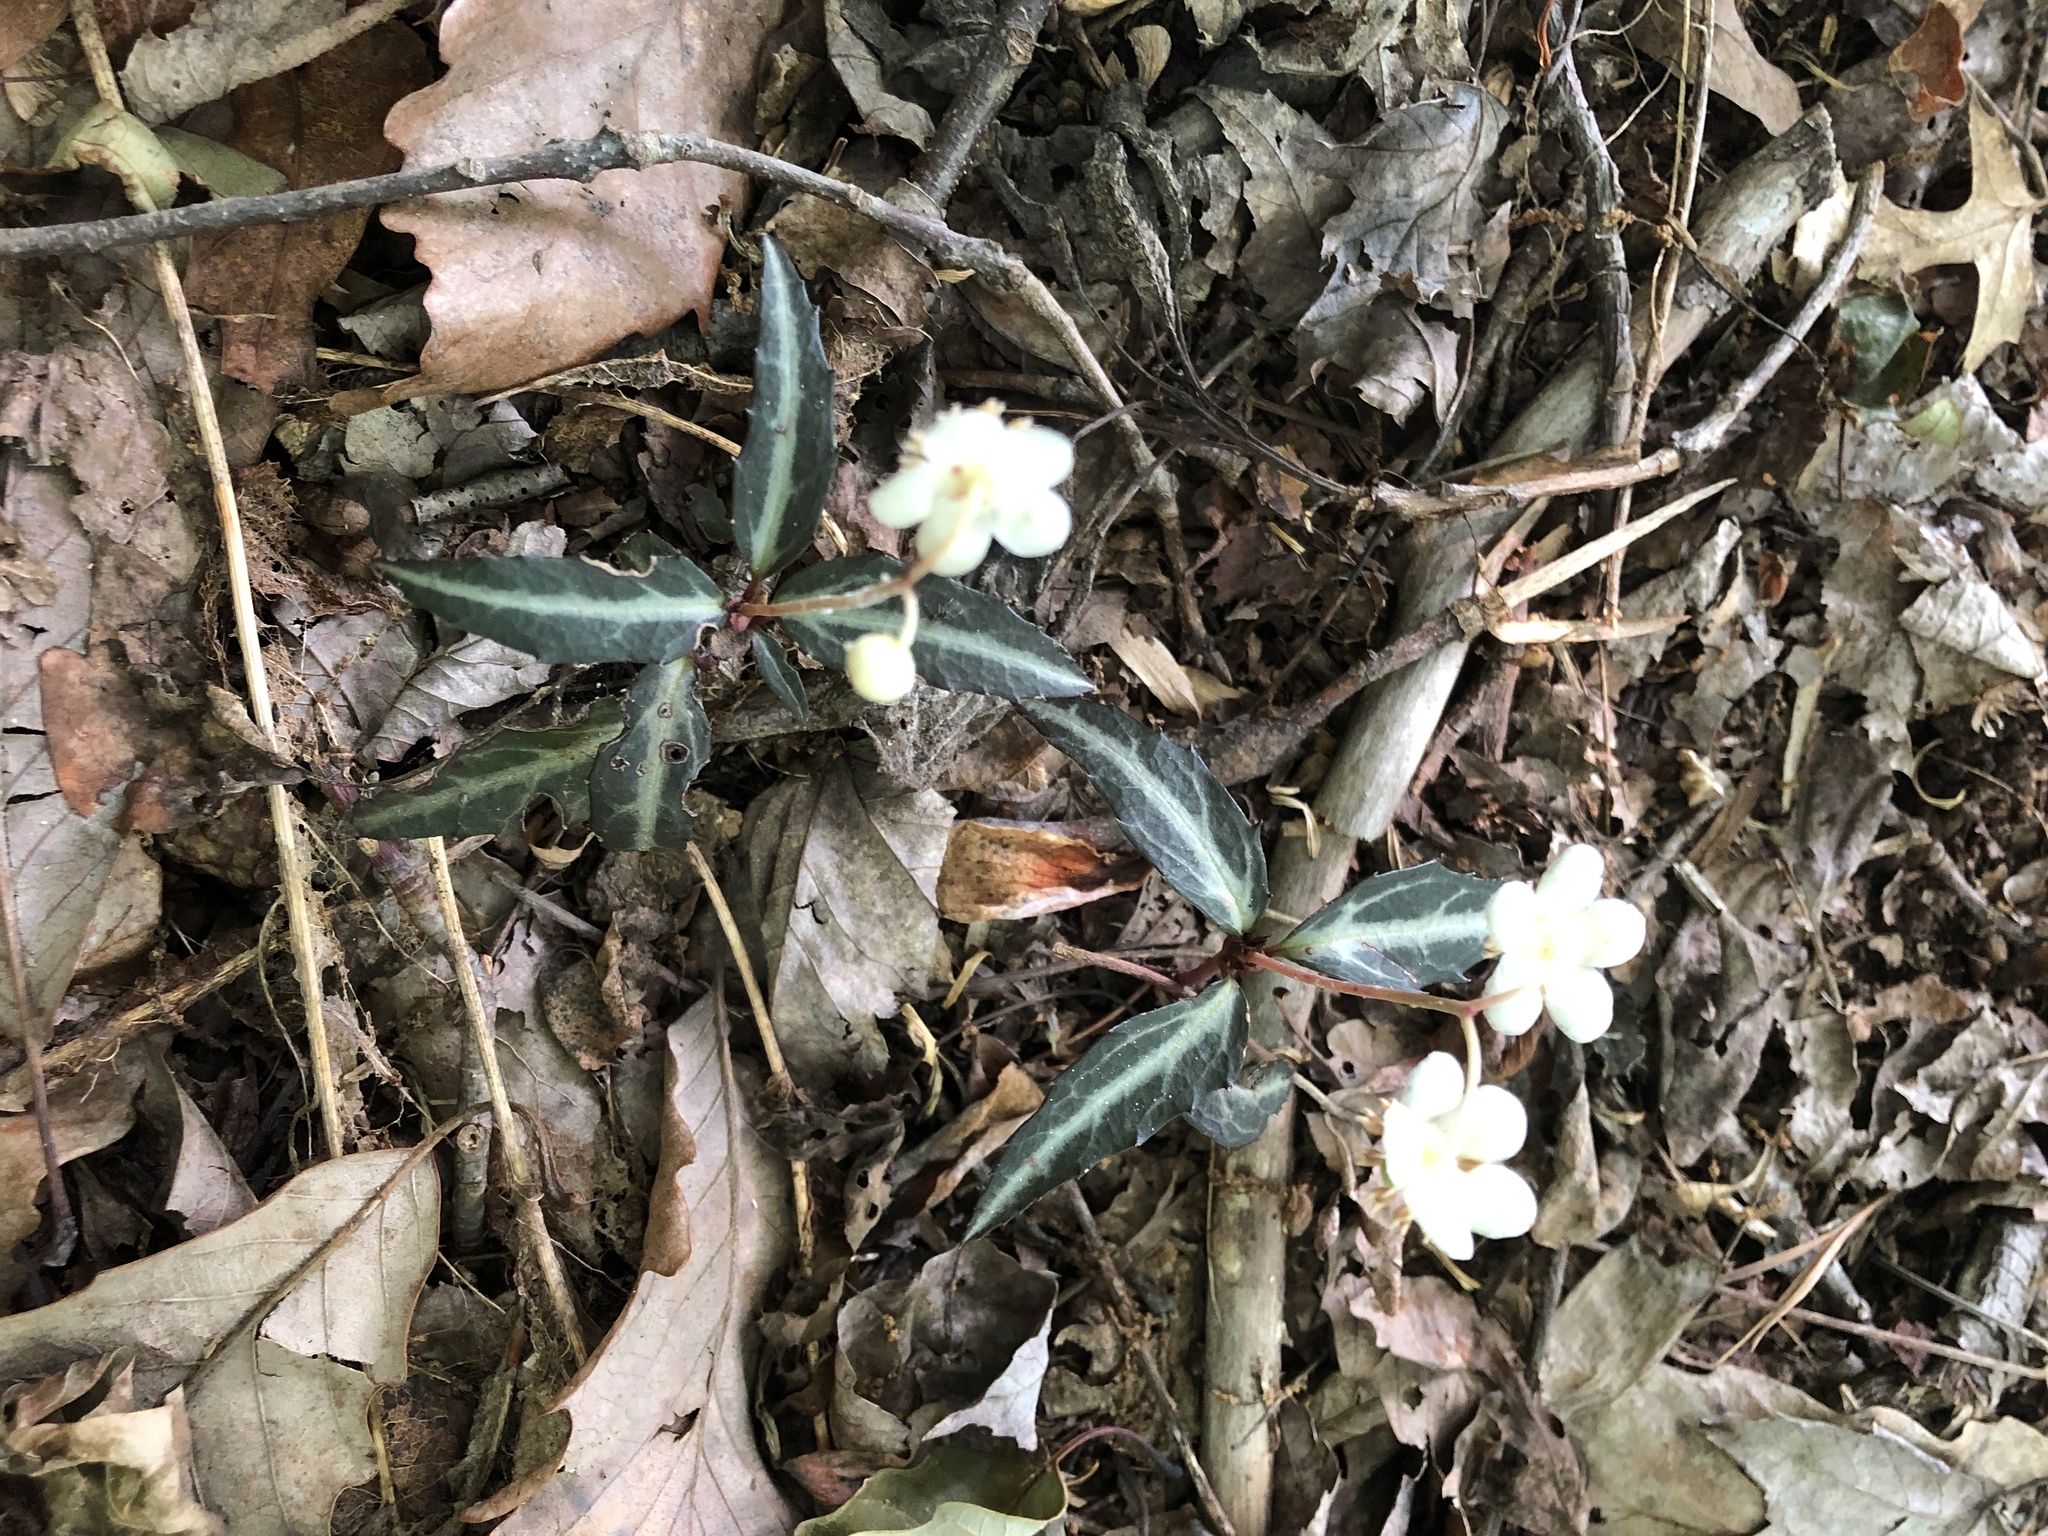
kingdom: Plantae
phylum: Tracheophyta
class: Magnoliopsida
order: Ericales
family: Ericaceae
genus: Chimaphila
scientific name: Chimaphila maculata
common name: Spotted pipsissewa
